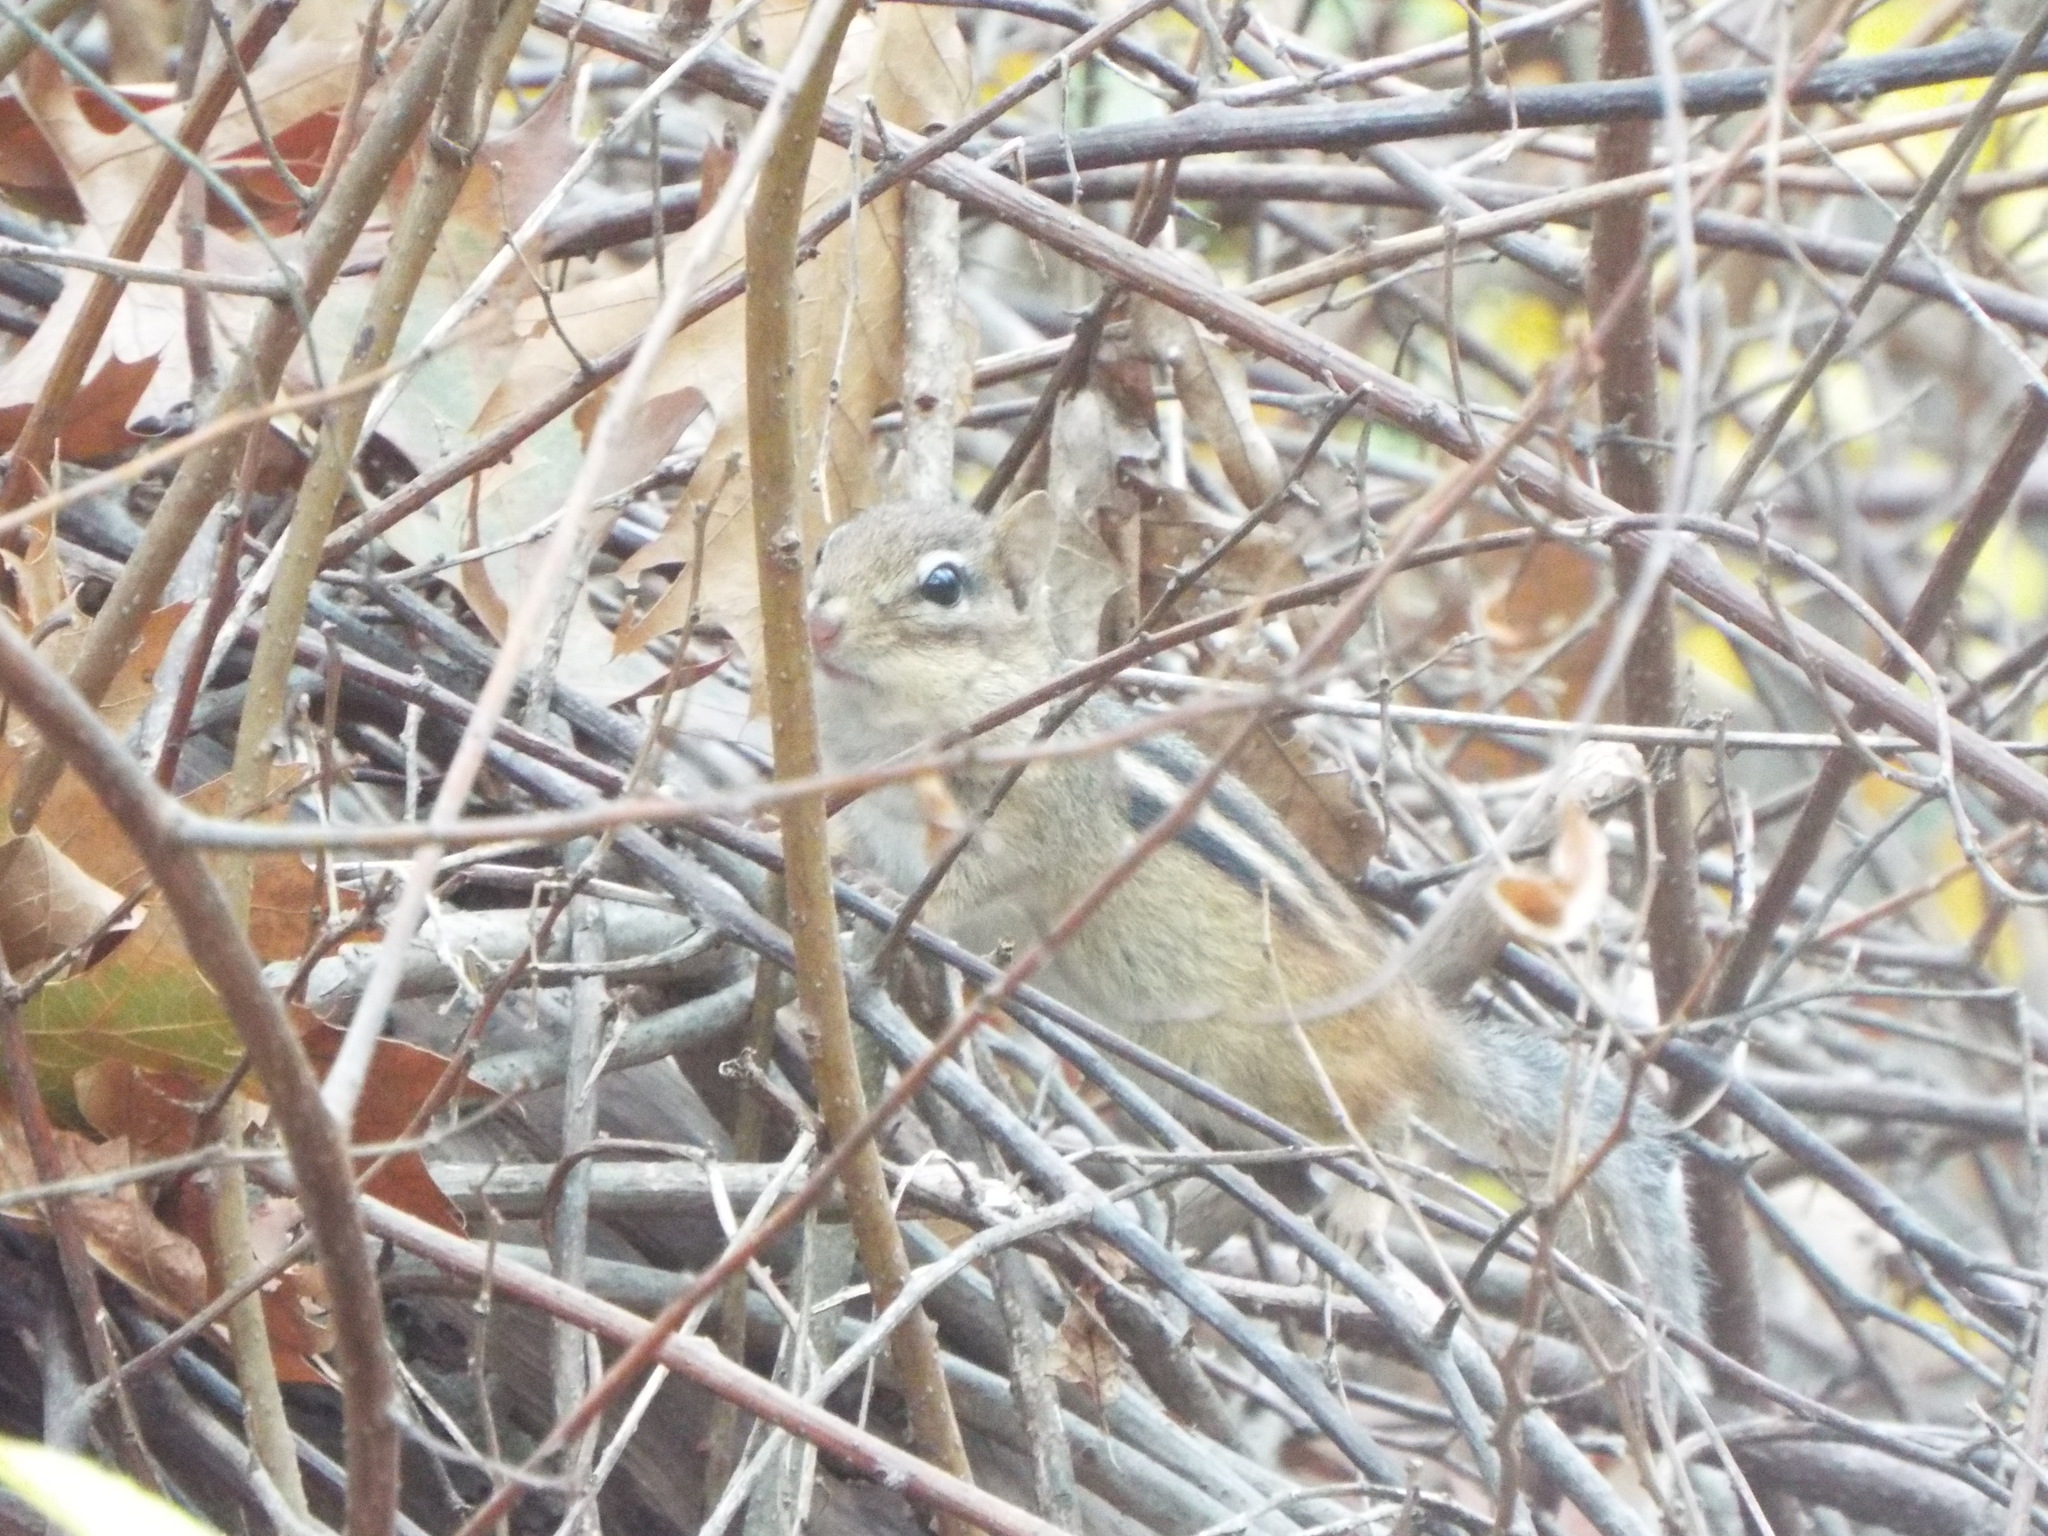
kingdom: Animalia
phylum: Chordata
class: Mammalia
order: Rodentia
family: Sciuridae
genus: Tamias
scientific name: Tamias striatus
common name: Eastern chipmunk
